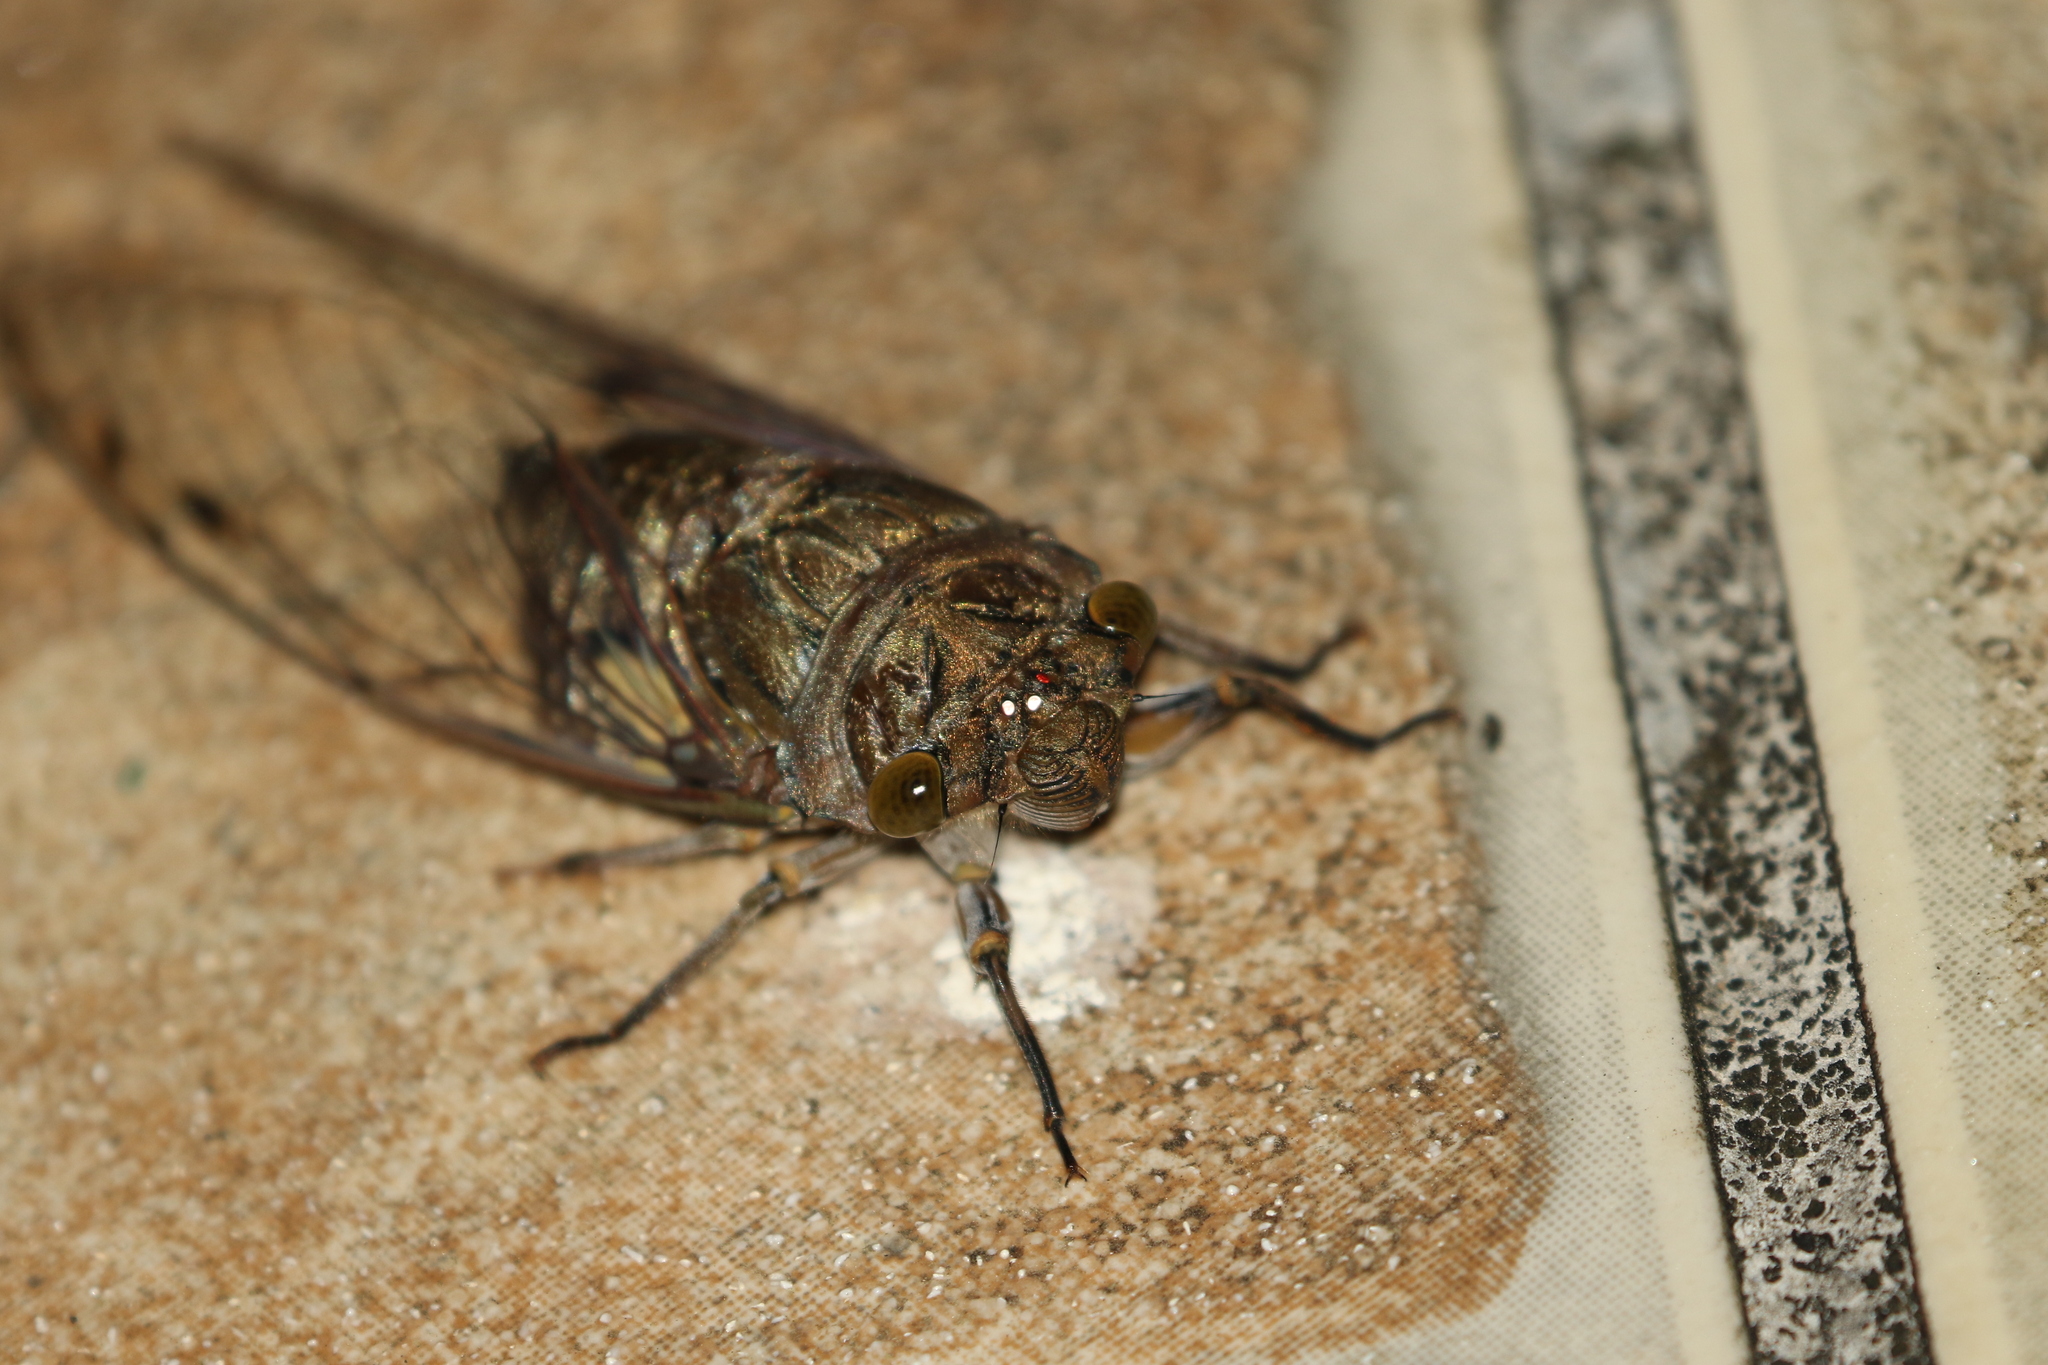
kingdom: Animalia
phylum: Arthropoda
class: Insecta
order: Hemiptera
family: Cicadidae
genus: Quesada
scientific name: Quesada gigas
